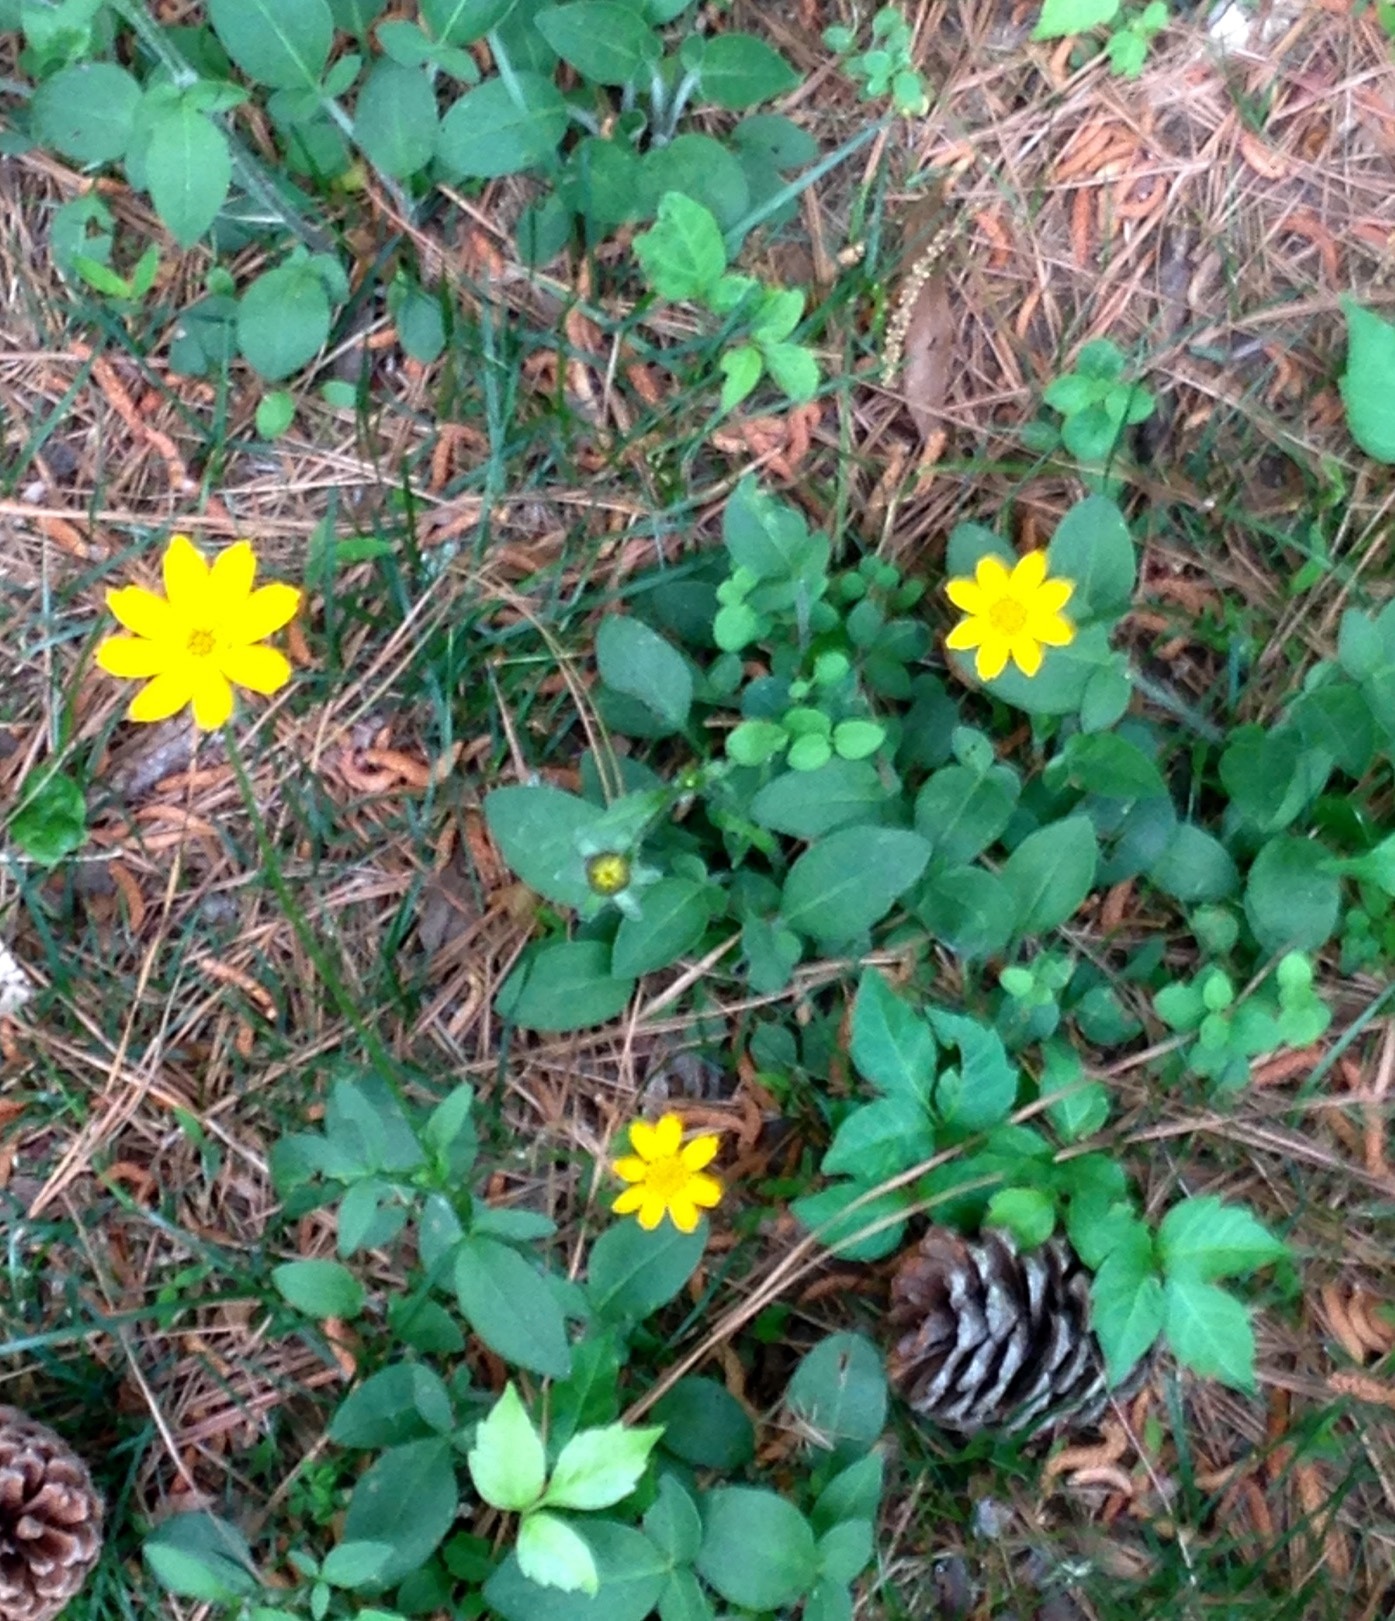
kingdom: Plantae
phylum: Tracheophyta
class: Magnoliopsida
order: Asterales
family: Asteraceae
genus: Chrysogonum
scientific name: Chrysogonum virginianum
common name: Golden-knee
